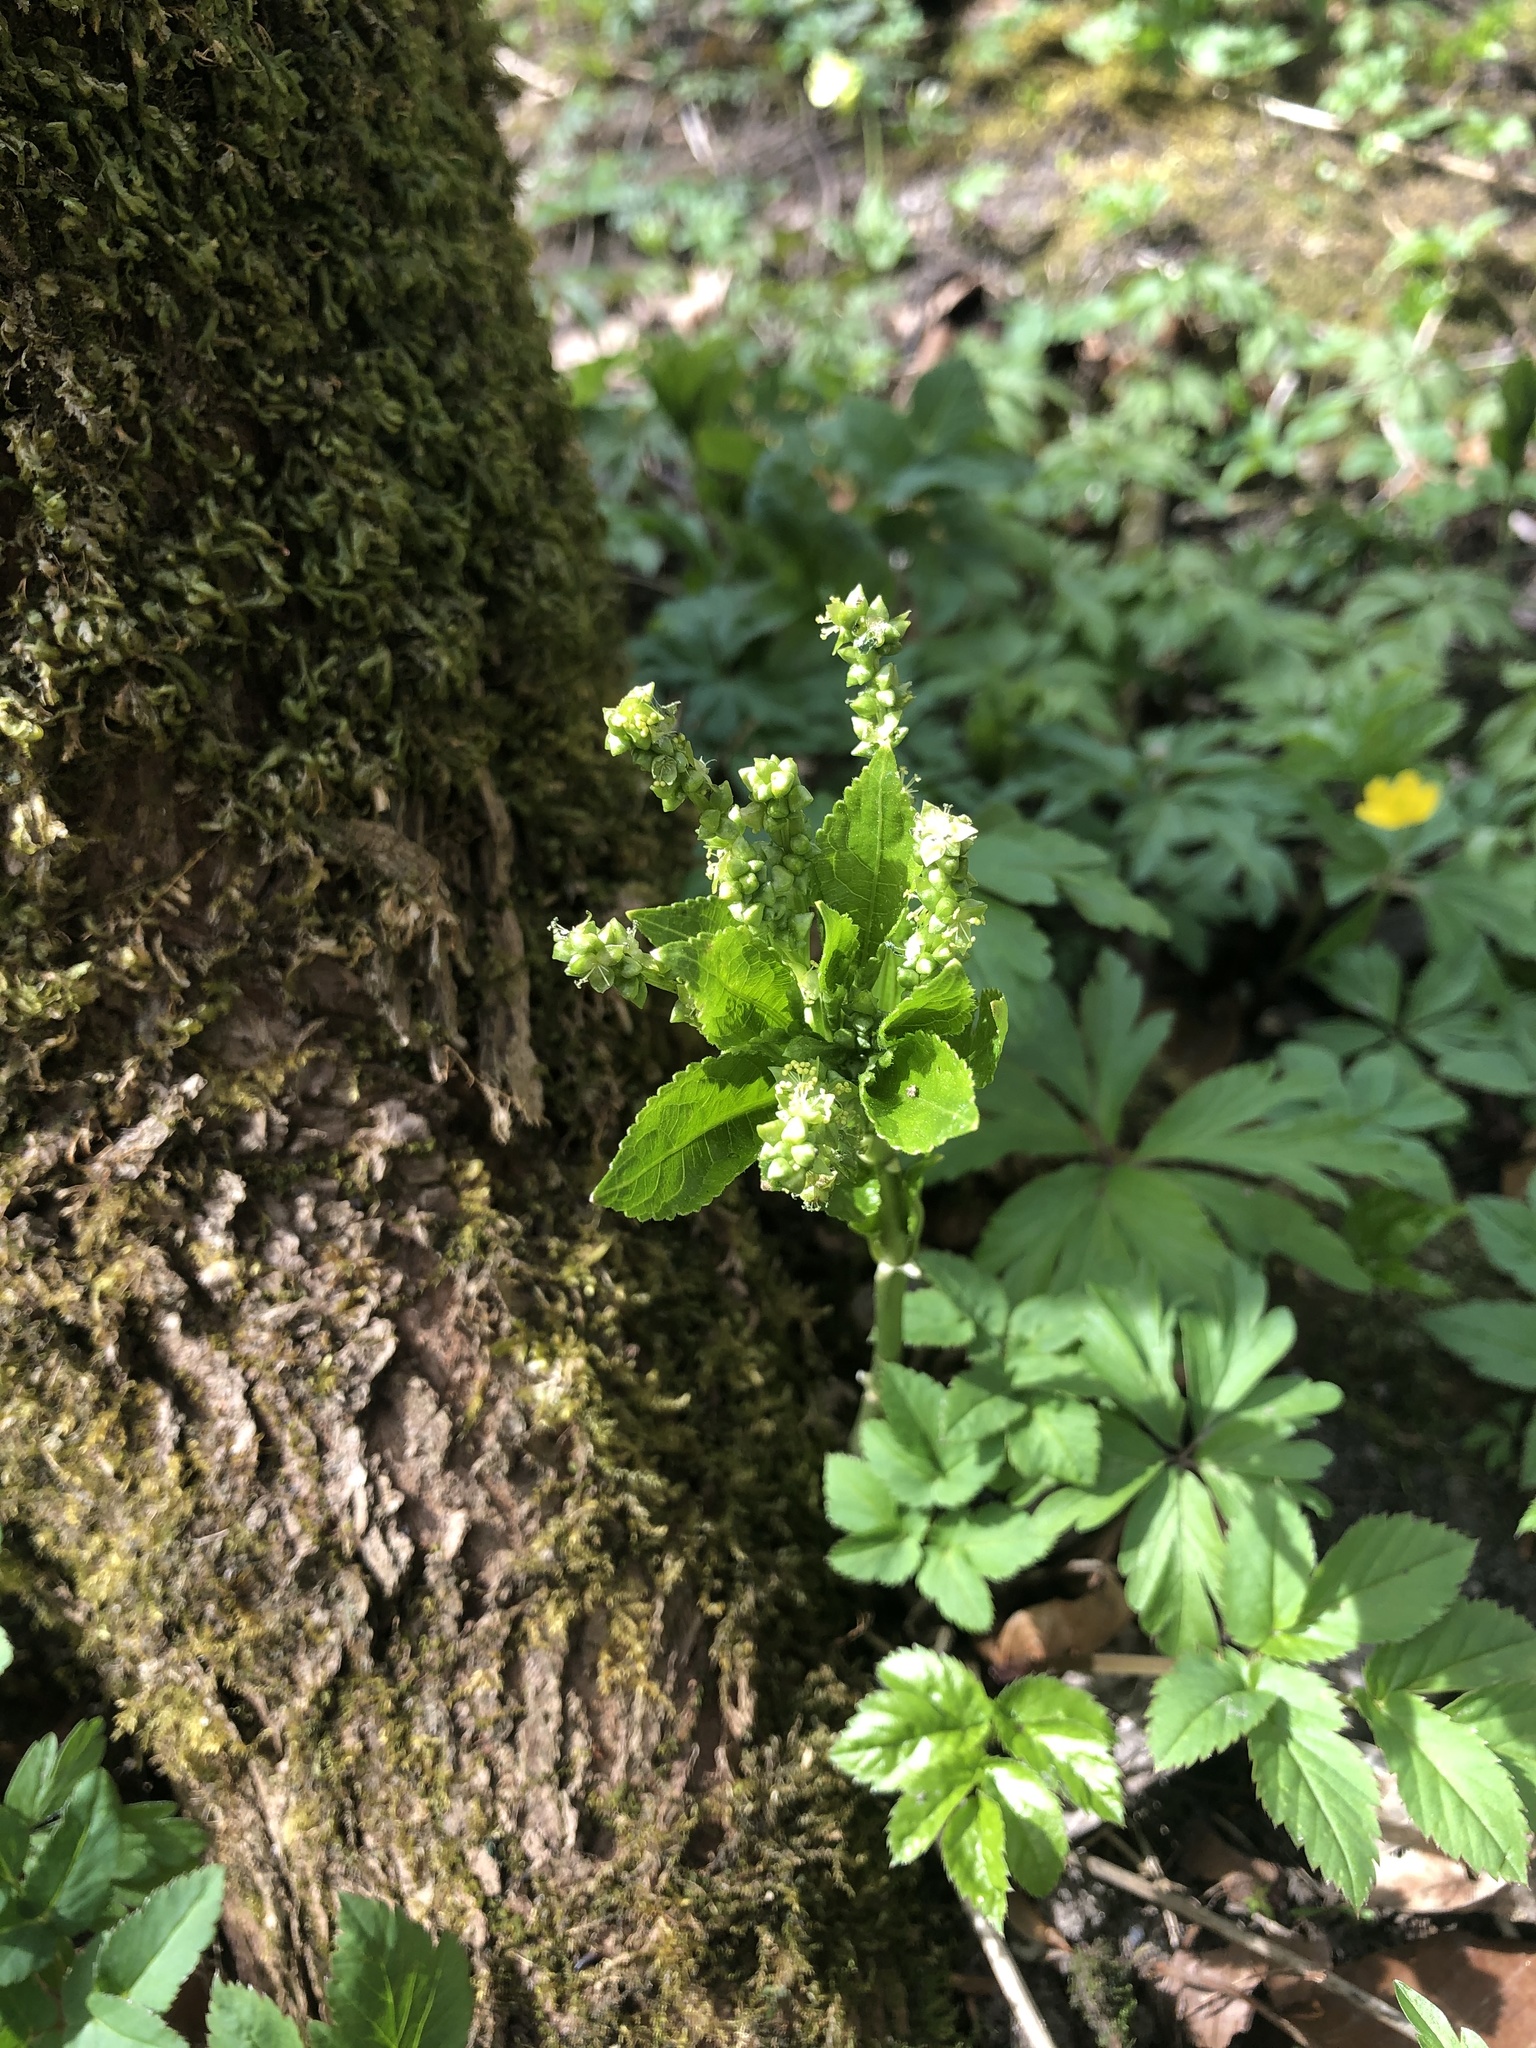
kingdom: Plantae
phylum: Tracheophyta
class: Magnoliopsida
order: Malpighiales
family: Euphorbiaceae
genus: Mercurialis
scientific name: Mercurialis perennis
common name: Dog mercury
